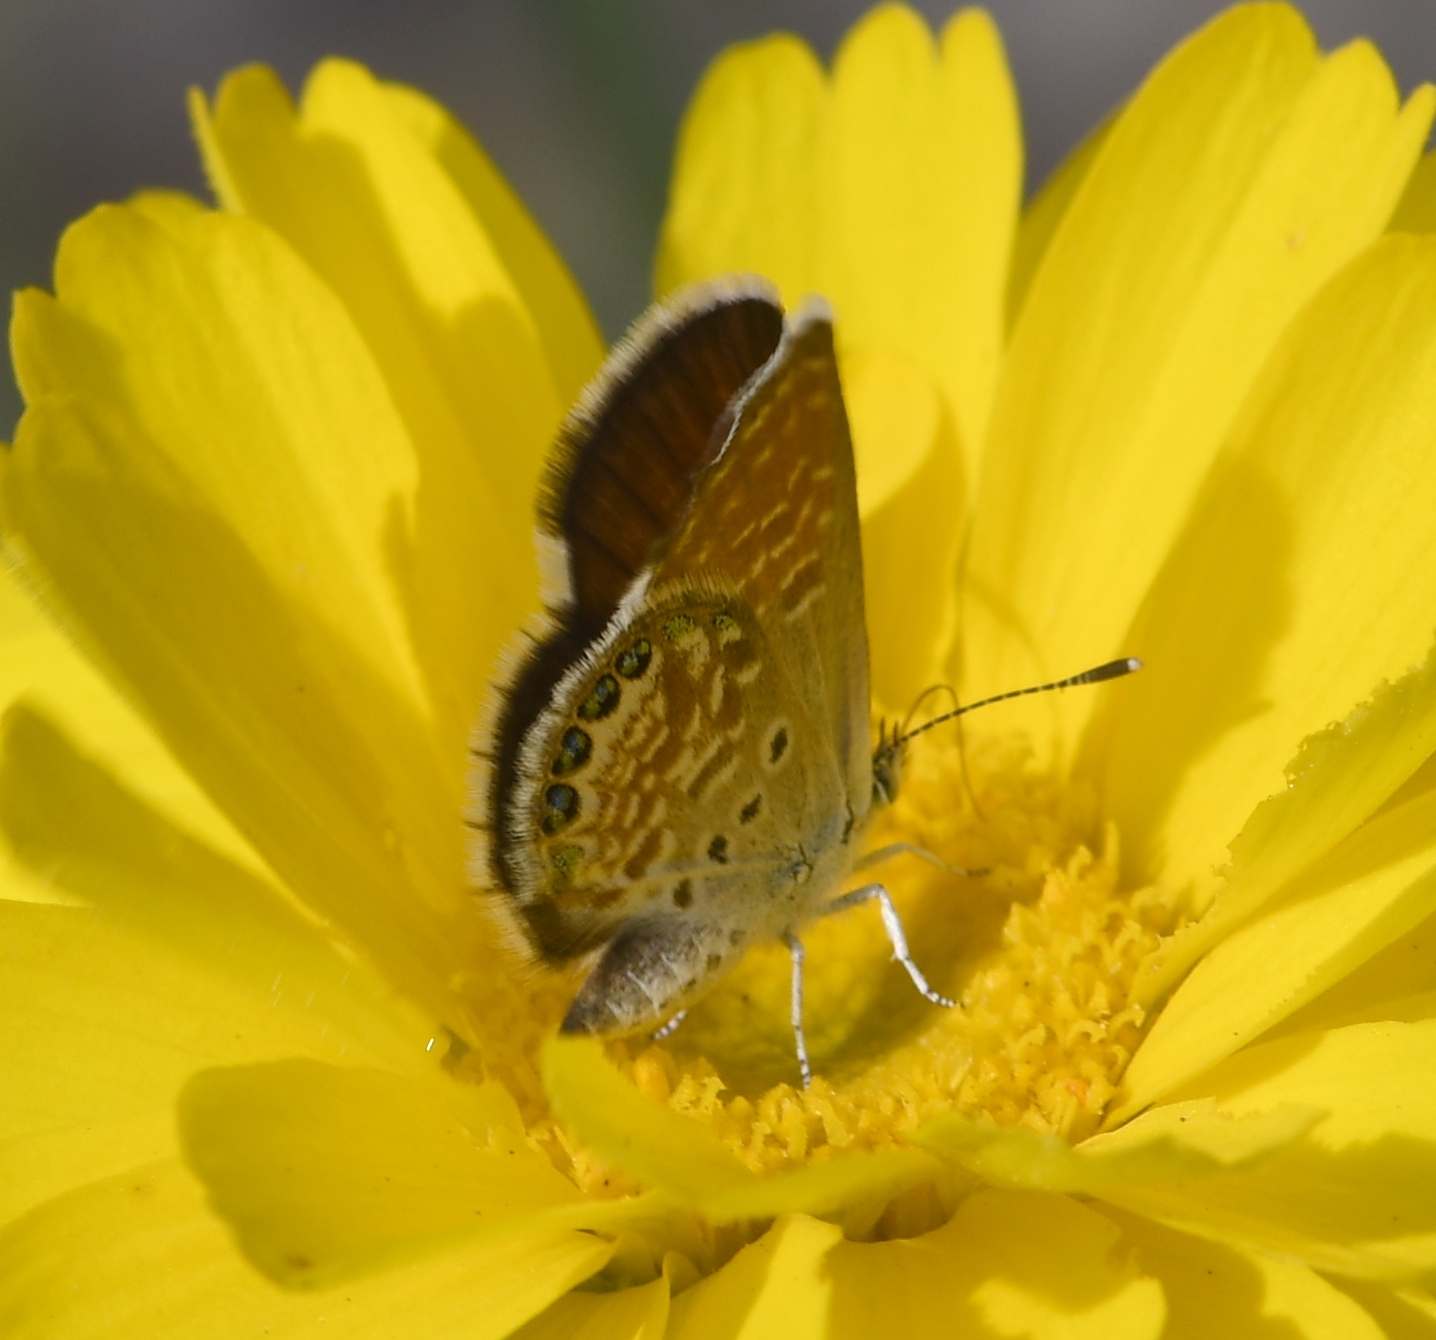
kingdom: Animalia
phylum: Arthropoda
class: Insecta
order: Lepidoptera
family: Lycaenidae
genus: Brephidium
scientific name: Brephidium exilis
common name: Pygmy blue
